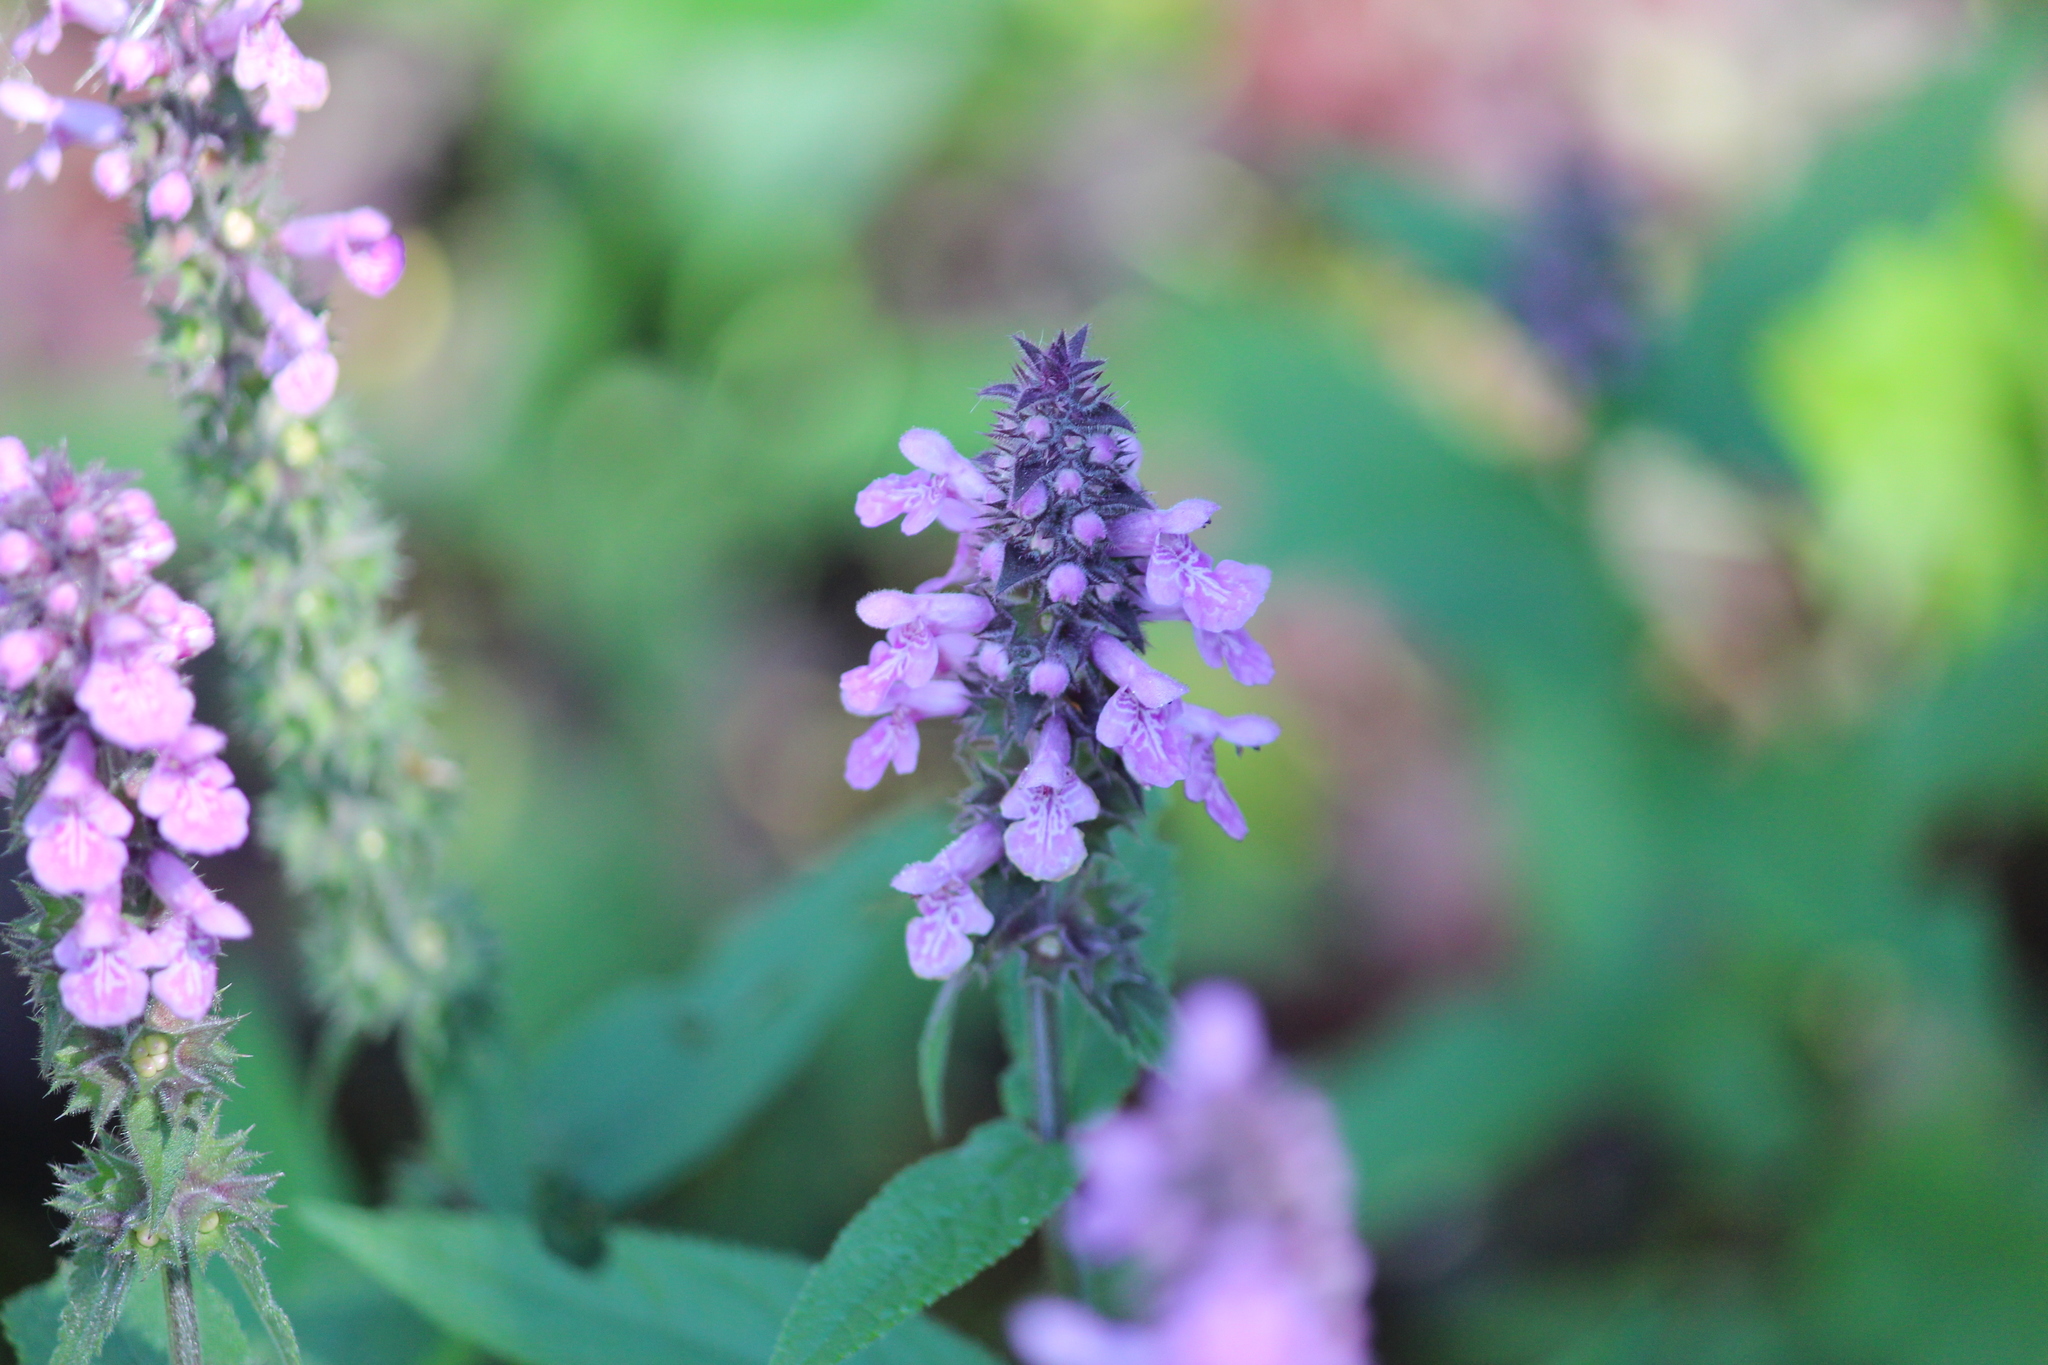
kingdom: Plantae
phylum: Tracheophyta
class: Magnoliopsida
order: Lamiales
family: Lamiaceae
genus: Stachys
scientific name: Stachys palustris
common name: Marsh woundwort
